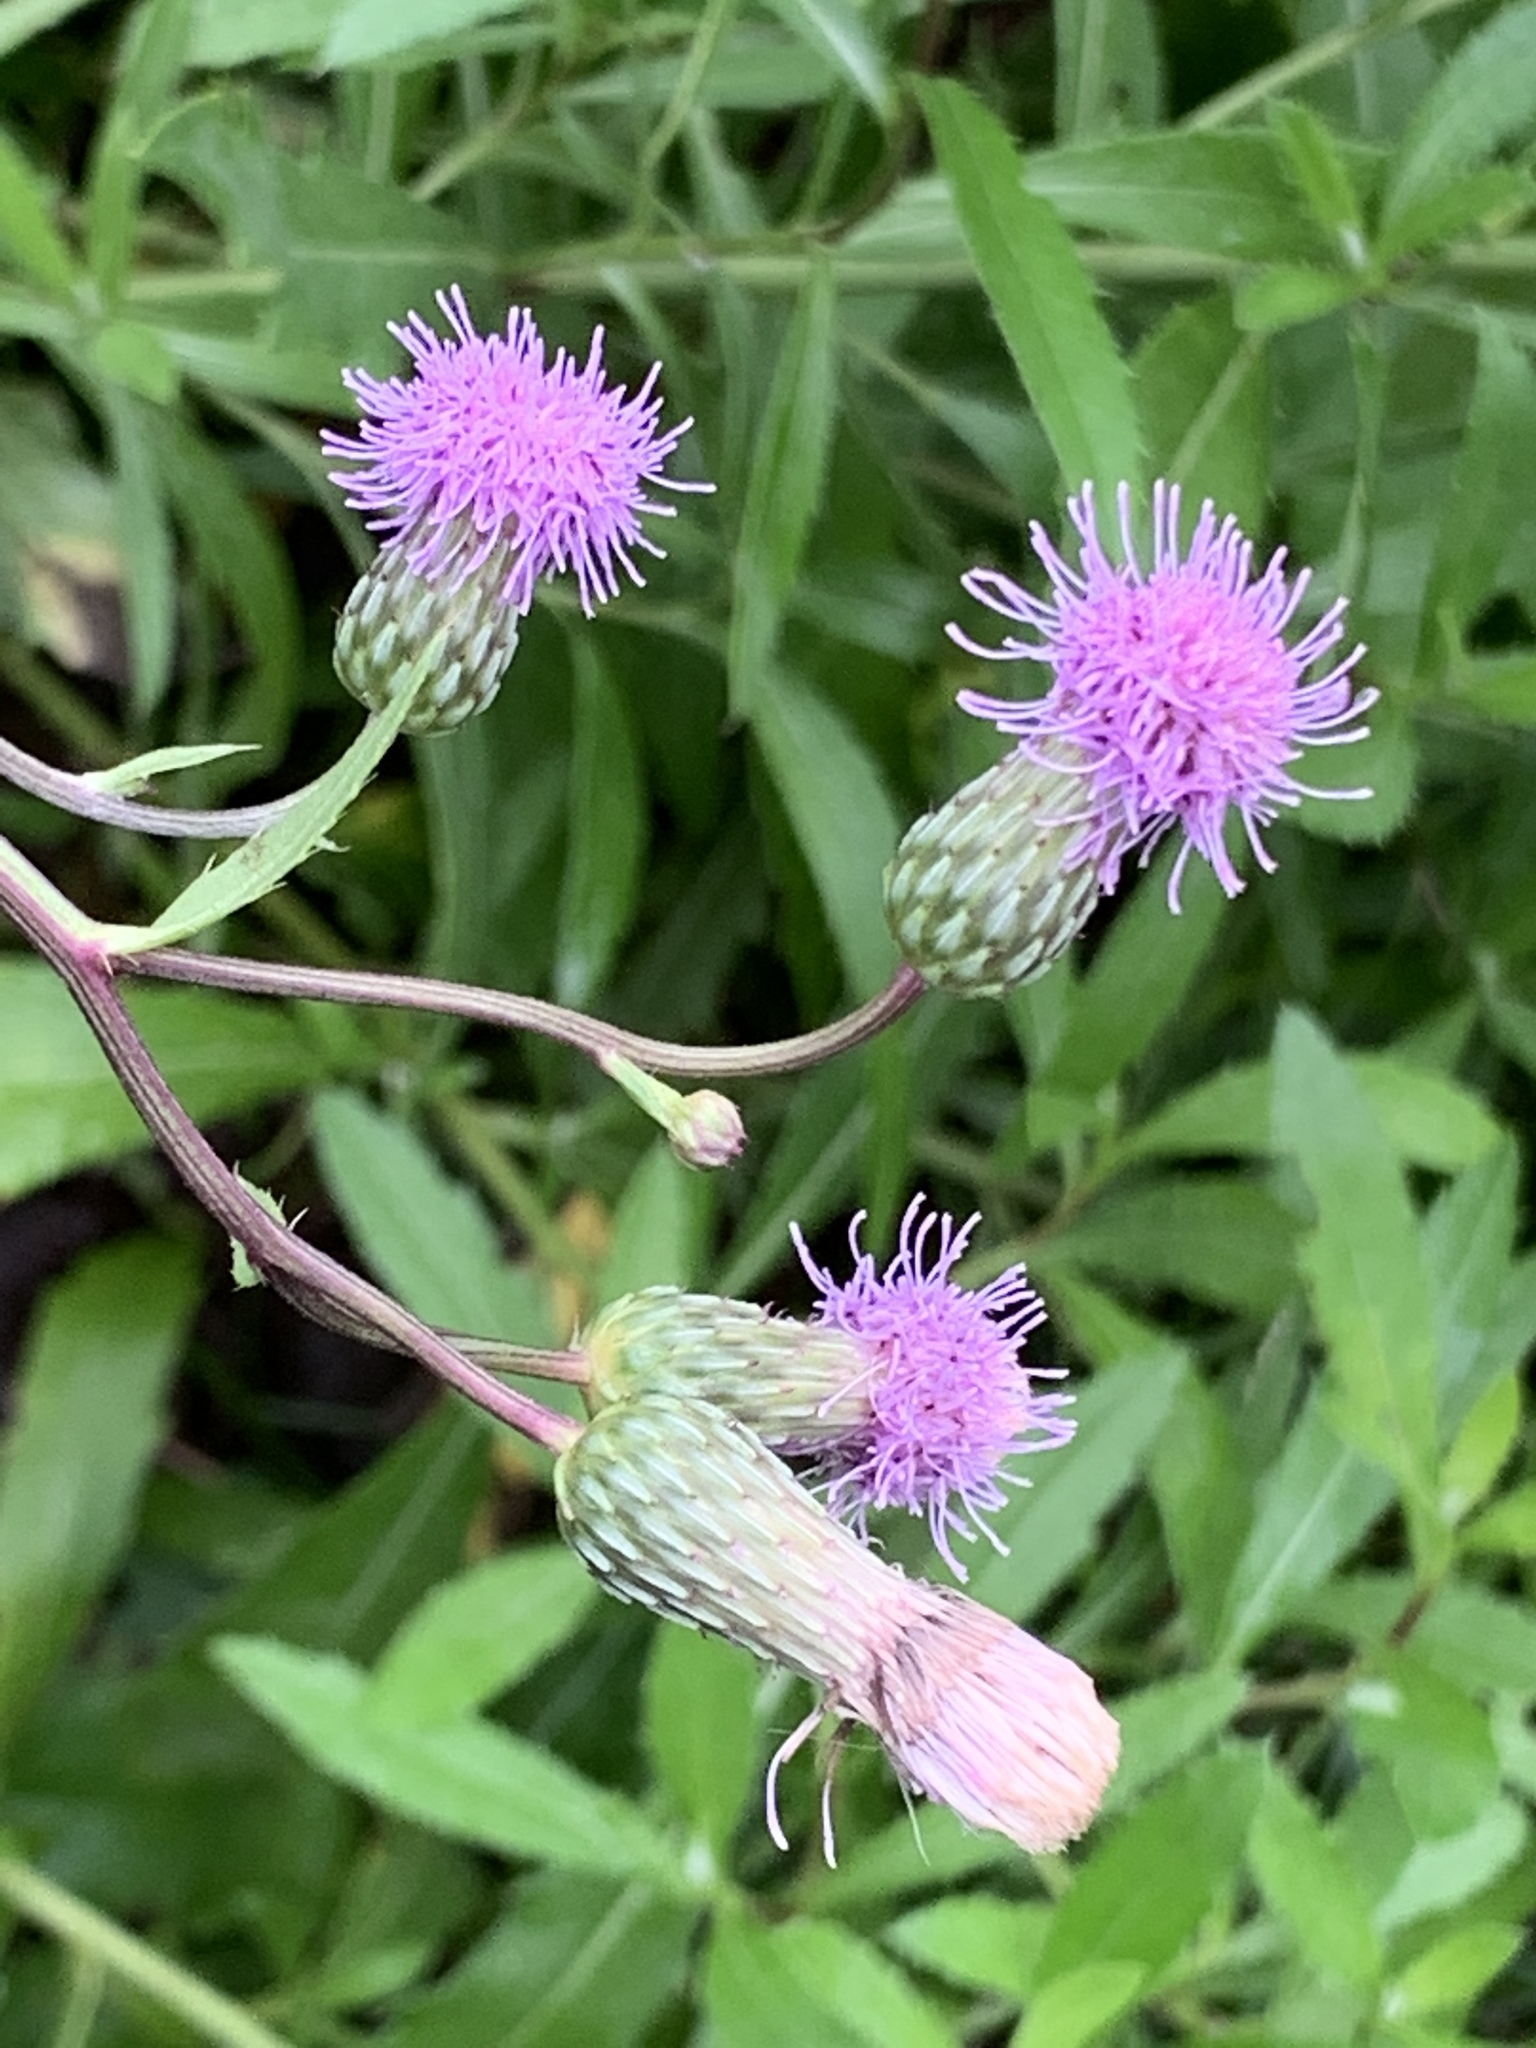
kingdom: Plantae
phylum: Tracheophyta
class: Magnoliopsida
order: Asterales
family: Asteraceae
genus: Cirsium
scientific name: Cirsium arvense
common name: Creeping thistle
